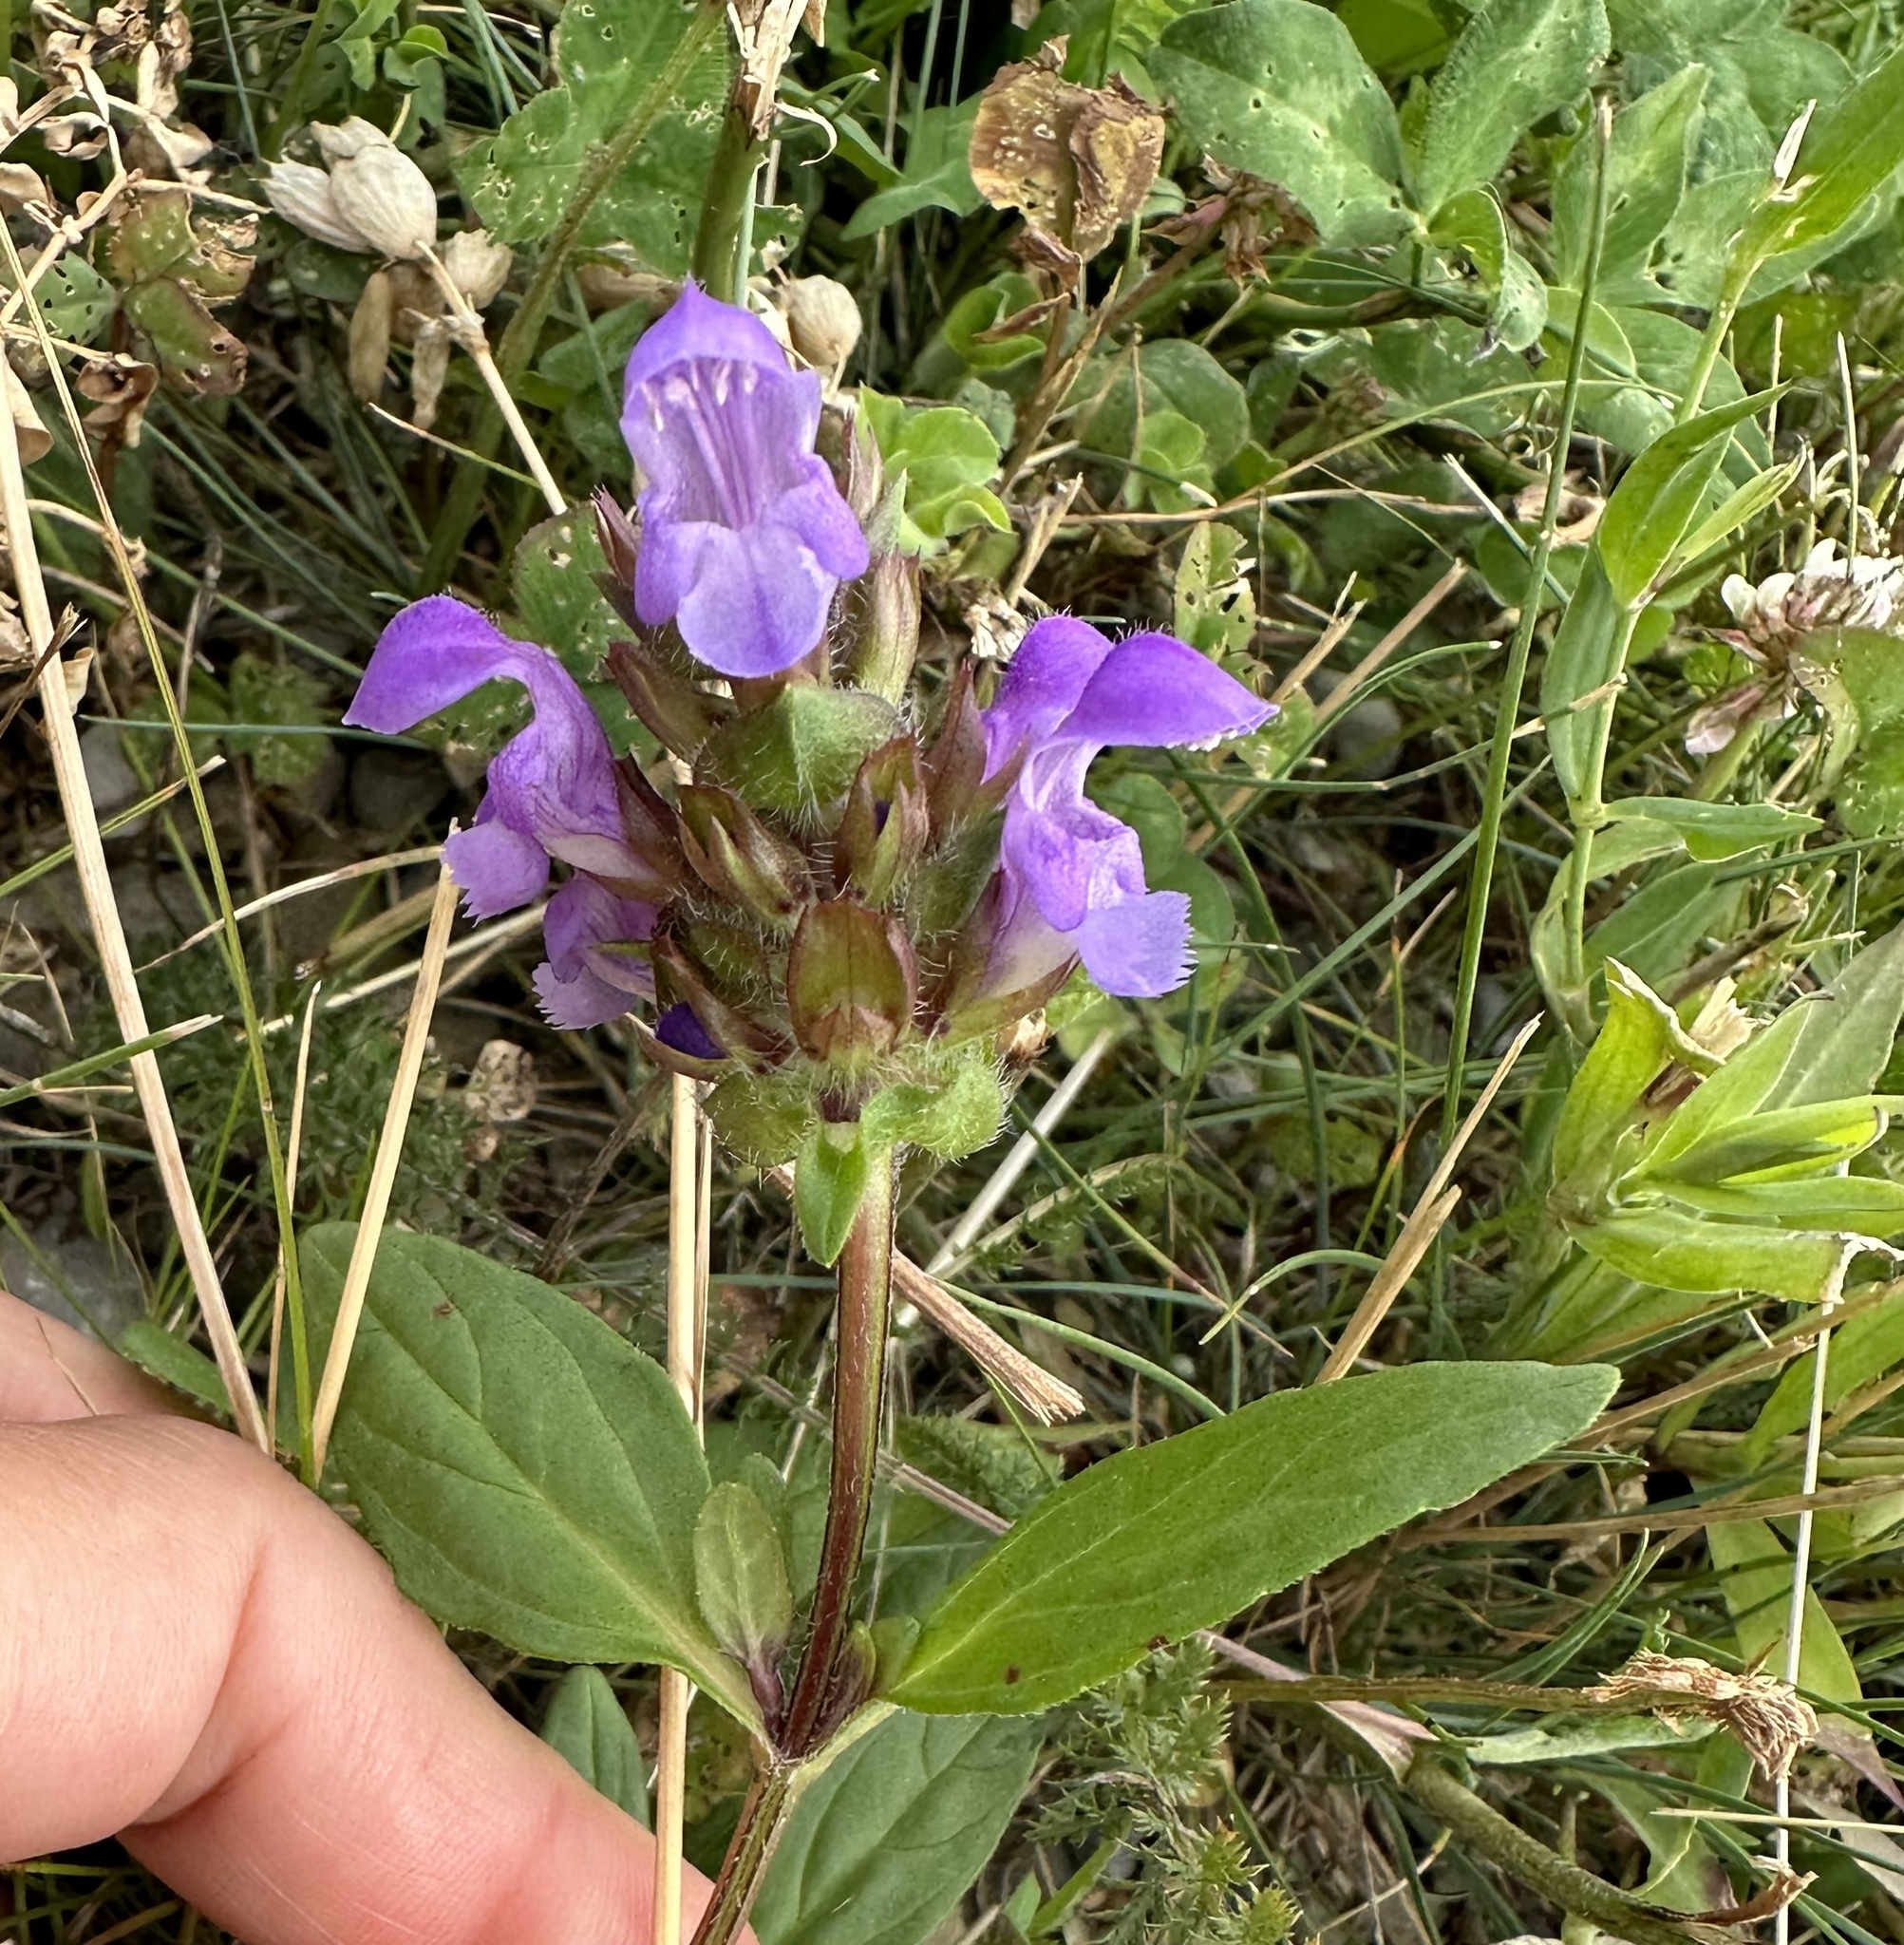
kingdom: Plantae
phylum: Tracheophyta
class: Magnoliopsida
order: Lamiales
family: Lamiaceae
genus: Prunella
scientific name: Prunella grandiflora
